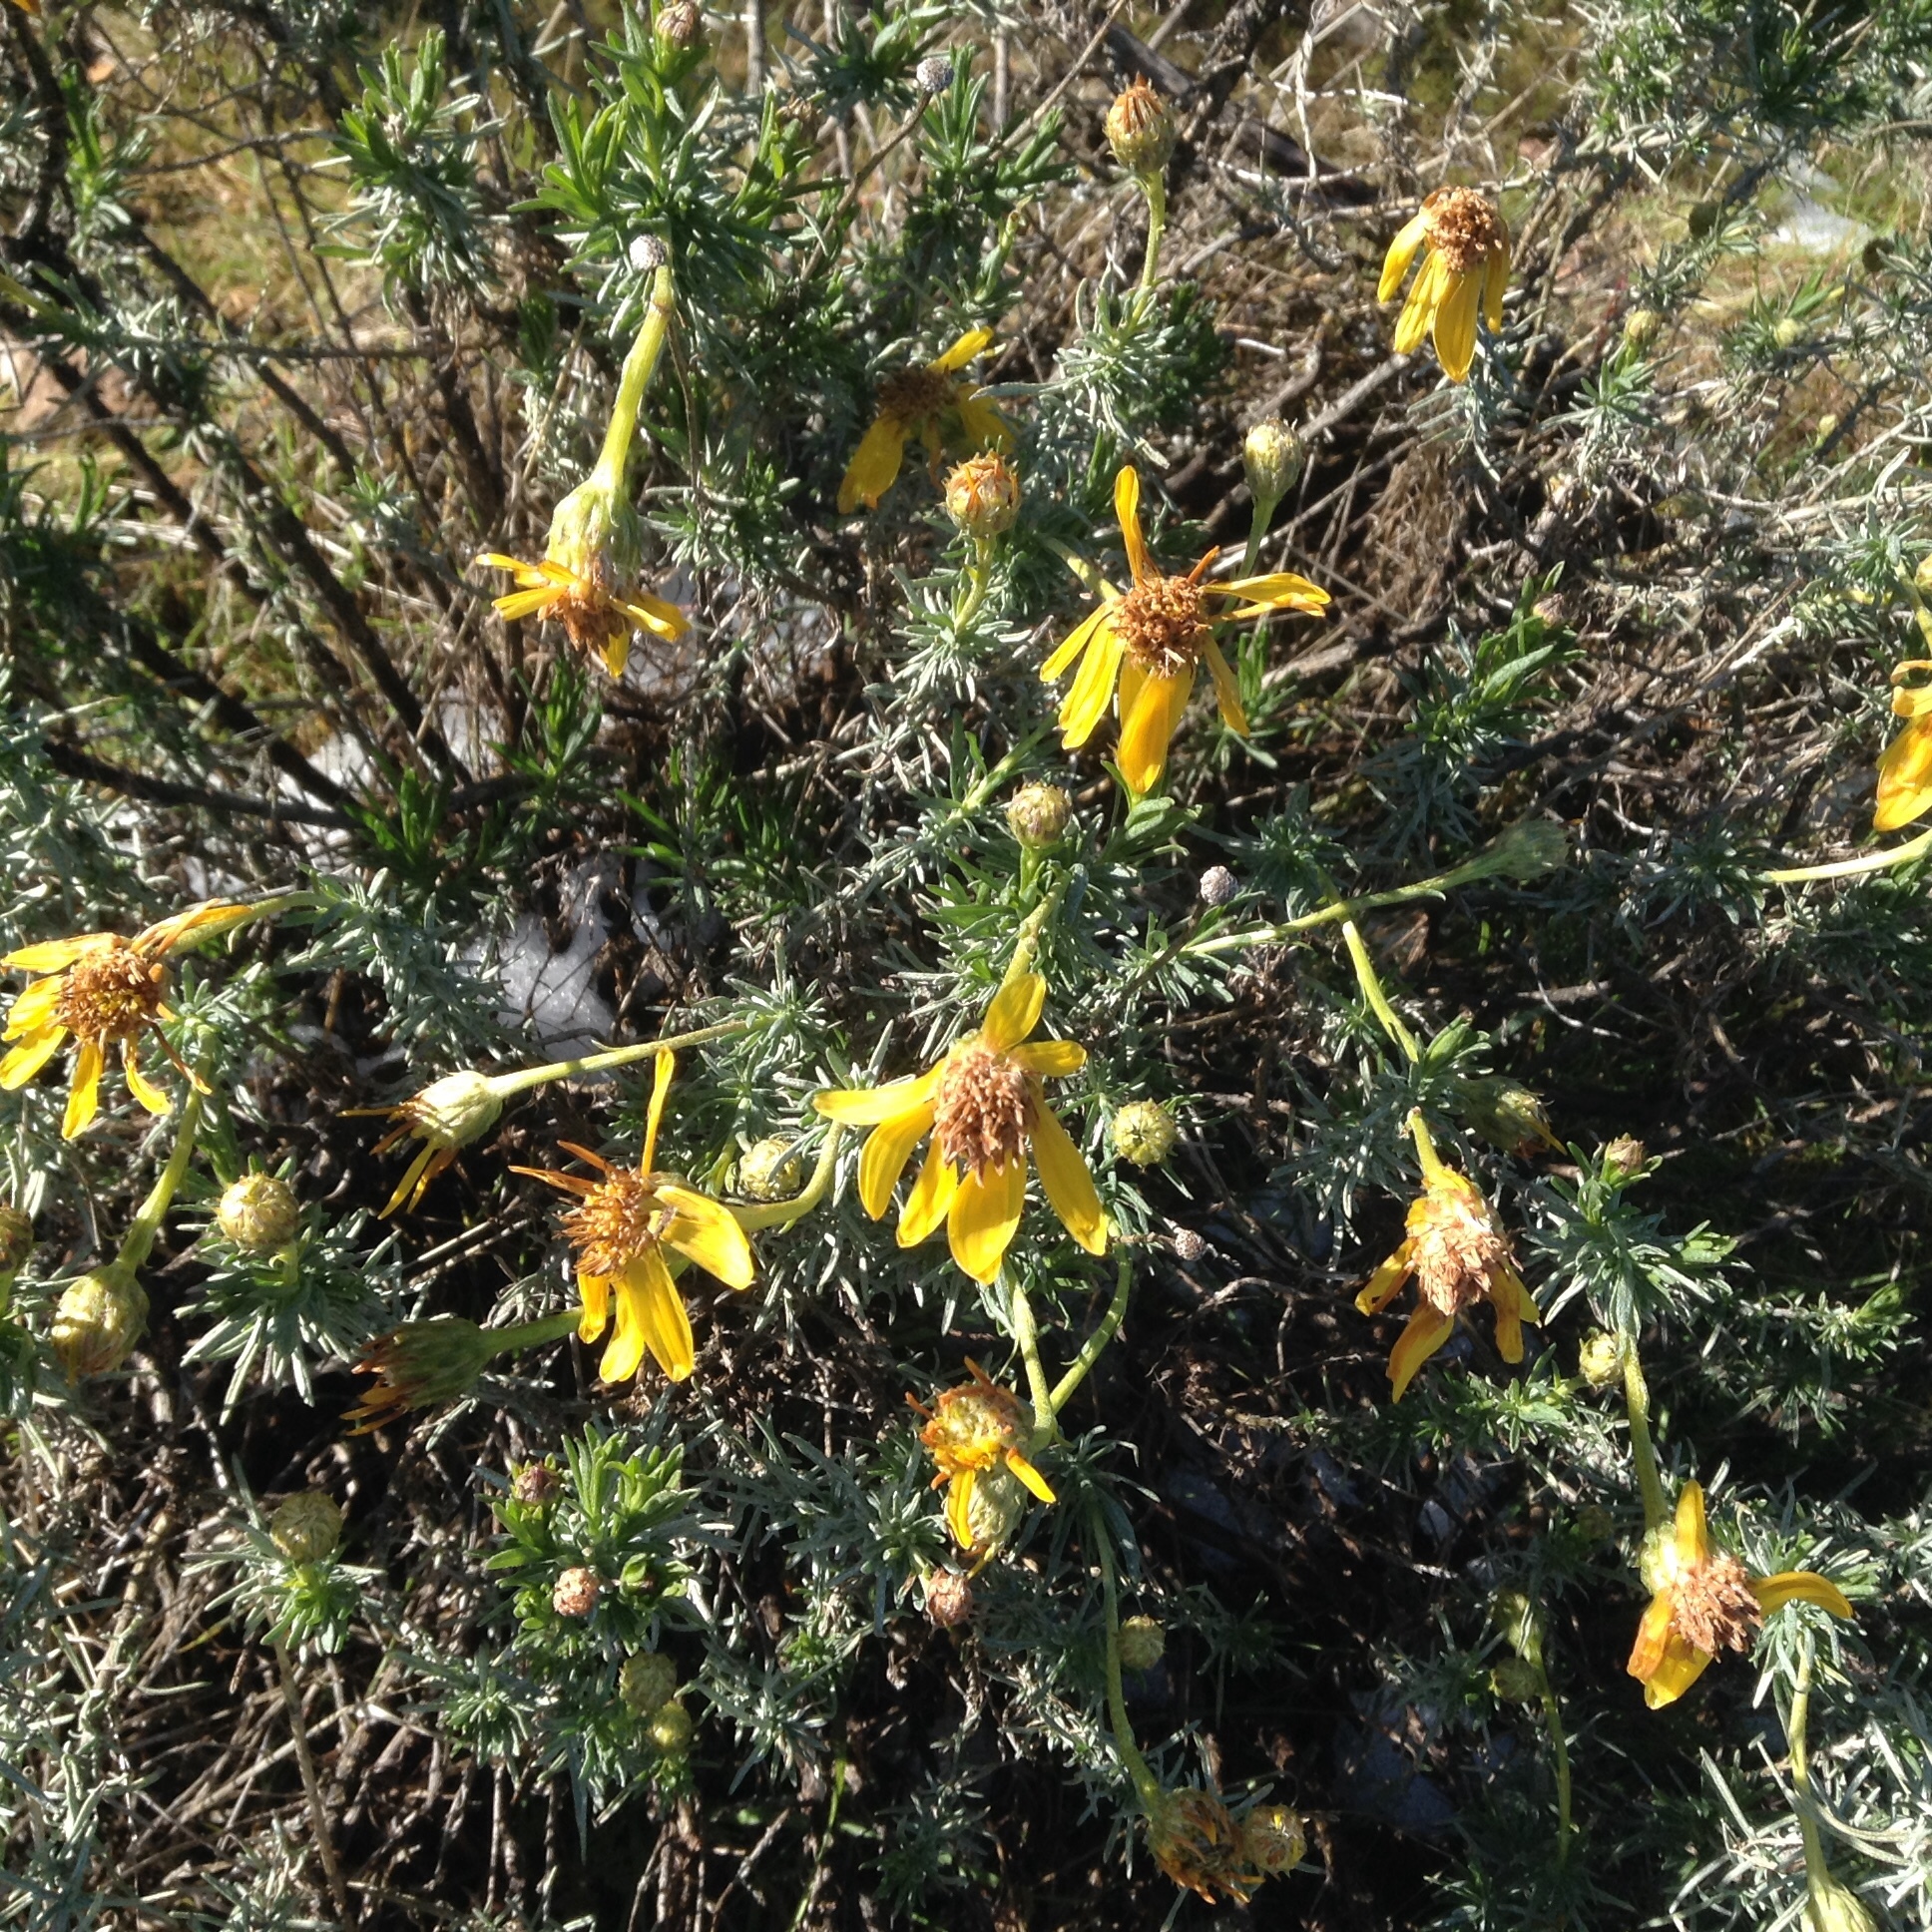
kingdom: Plantae
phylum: Tracheophyta
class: Magnoliopsida
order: Asterales
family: Asteraceae
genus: Ericameria
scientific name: Ericameria linearifolia
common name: Interior goldenbush
